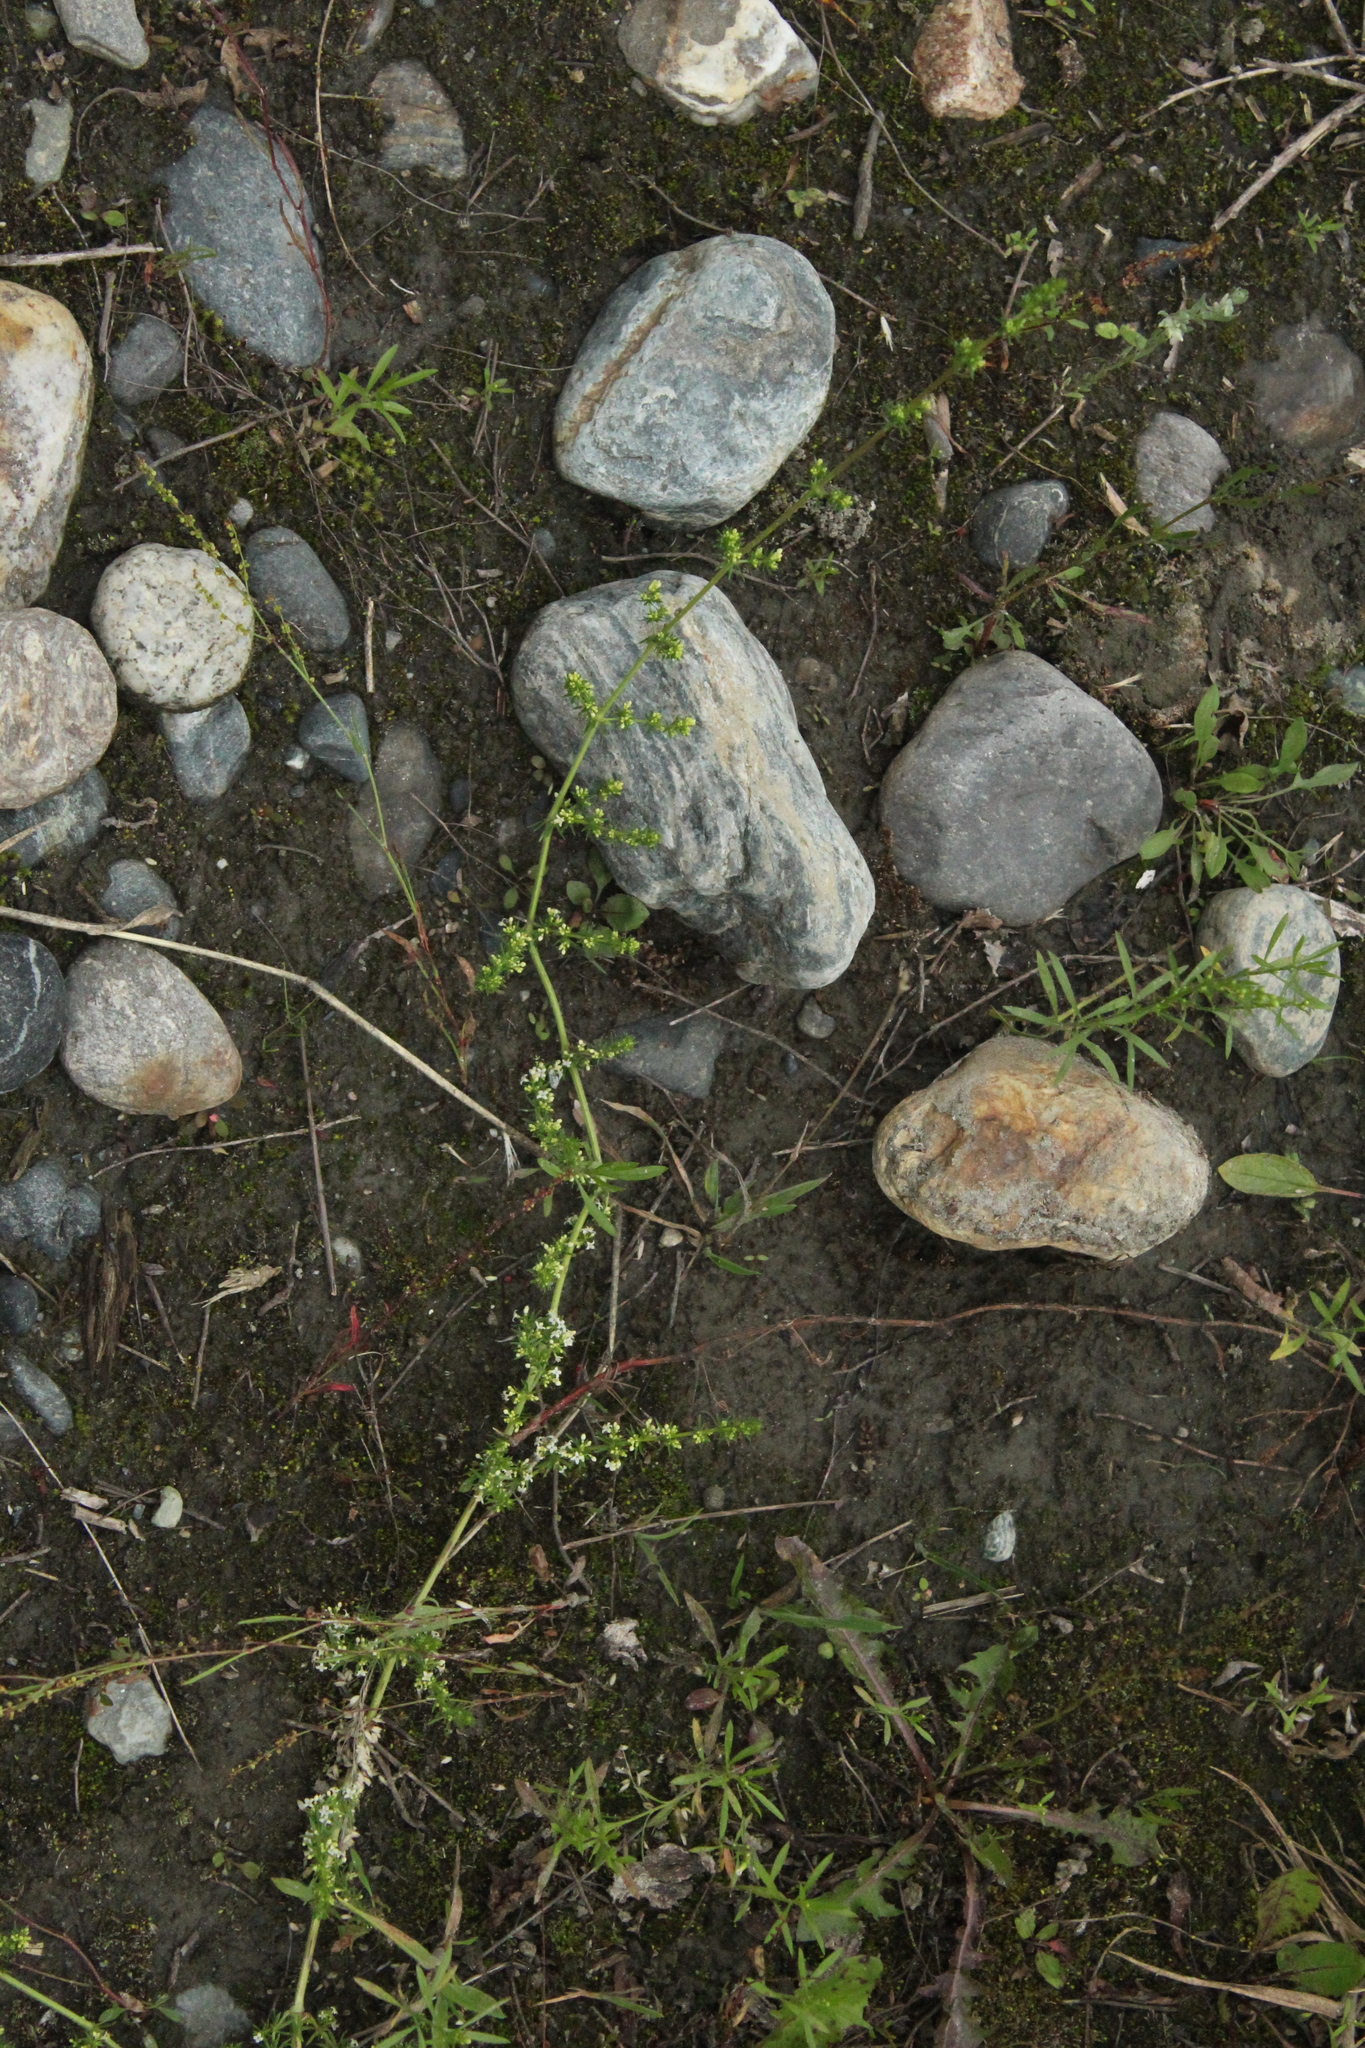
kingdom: Plantae
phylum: Tracheophyta
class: Magnoliopsida
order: Gentianales
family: Rubiaceae
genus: Galium
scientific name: Galium humifusum
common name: Spreading bedstraw
